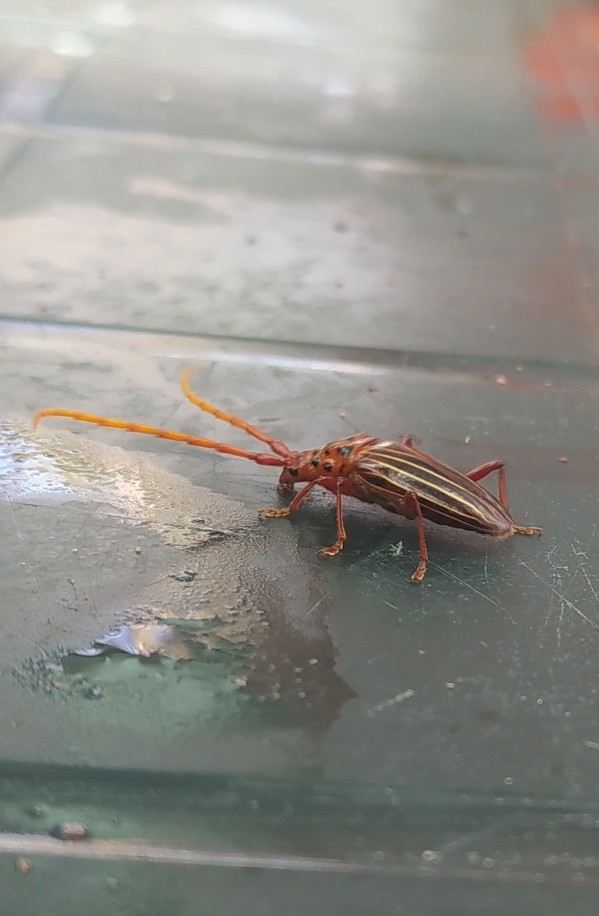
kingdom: Animalia
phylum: Arthropoda
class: Insecta
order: Coleoptera
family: Cerambycidae
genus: Chydarteres
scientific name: Chydarteres striatus
